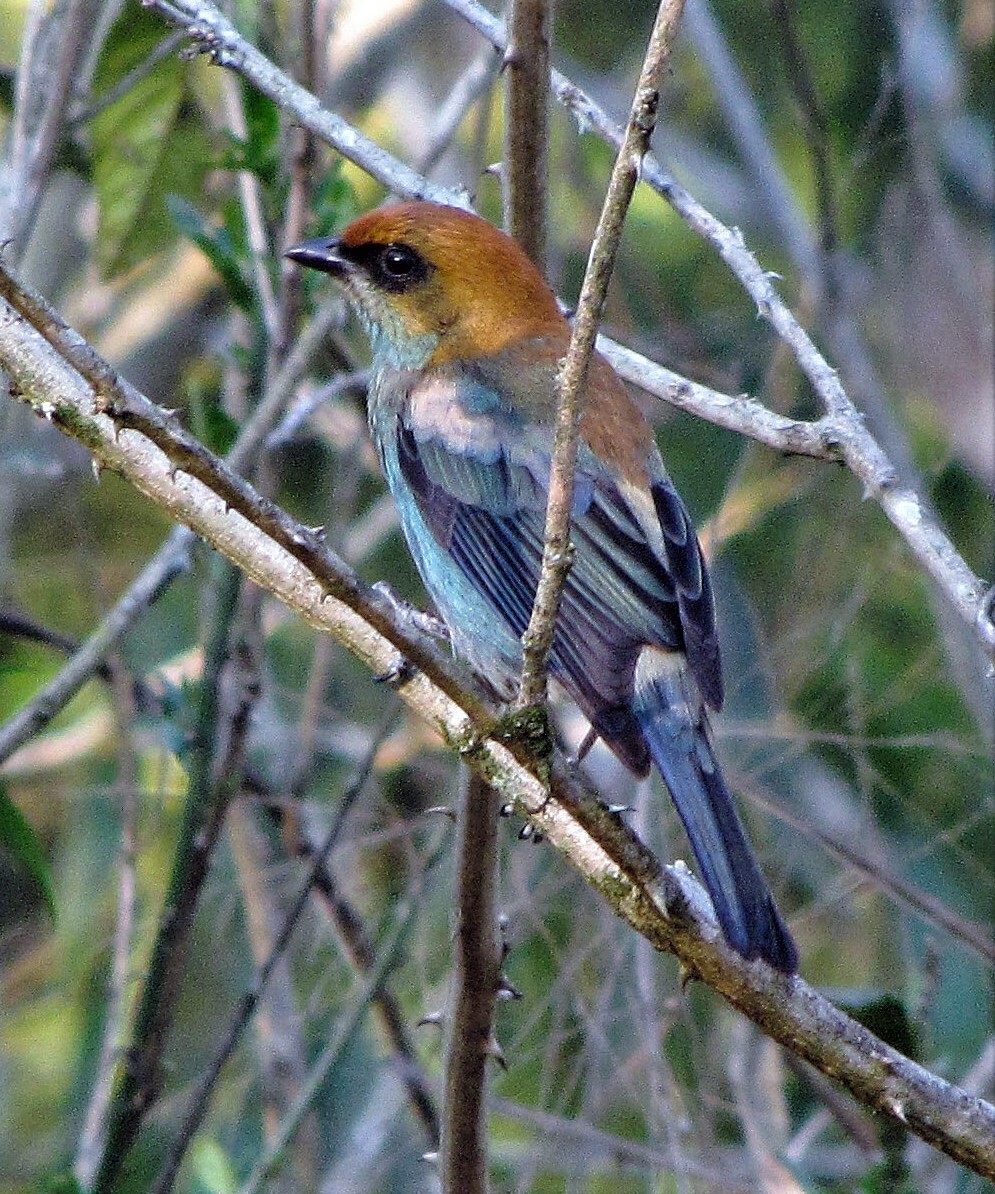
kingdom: Animalia
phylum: Chordata
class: Aves
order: Passeriformes
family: Thraupidae
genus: Stilpnia
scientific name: Stilpnia preciosa
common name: Chestnut-backed tanager
